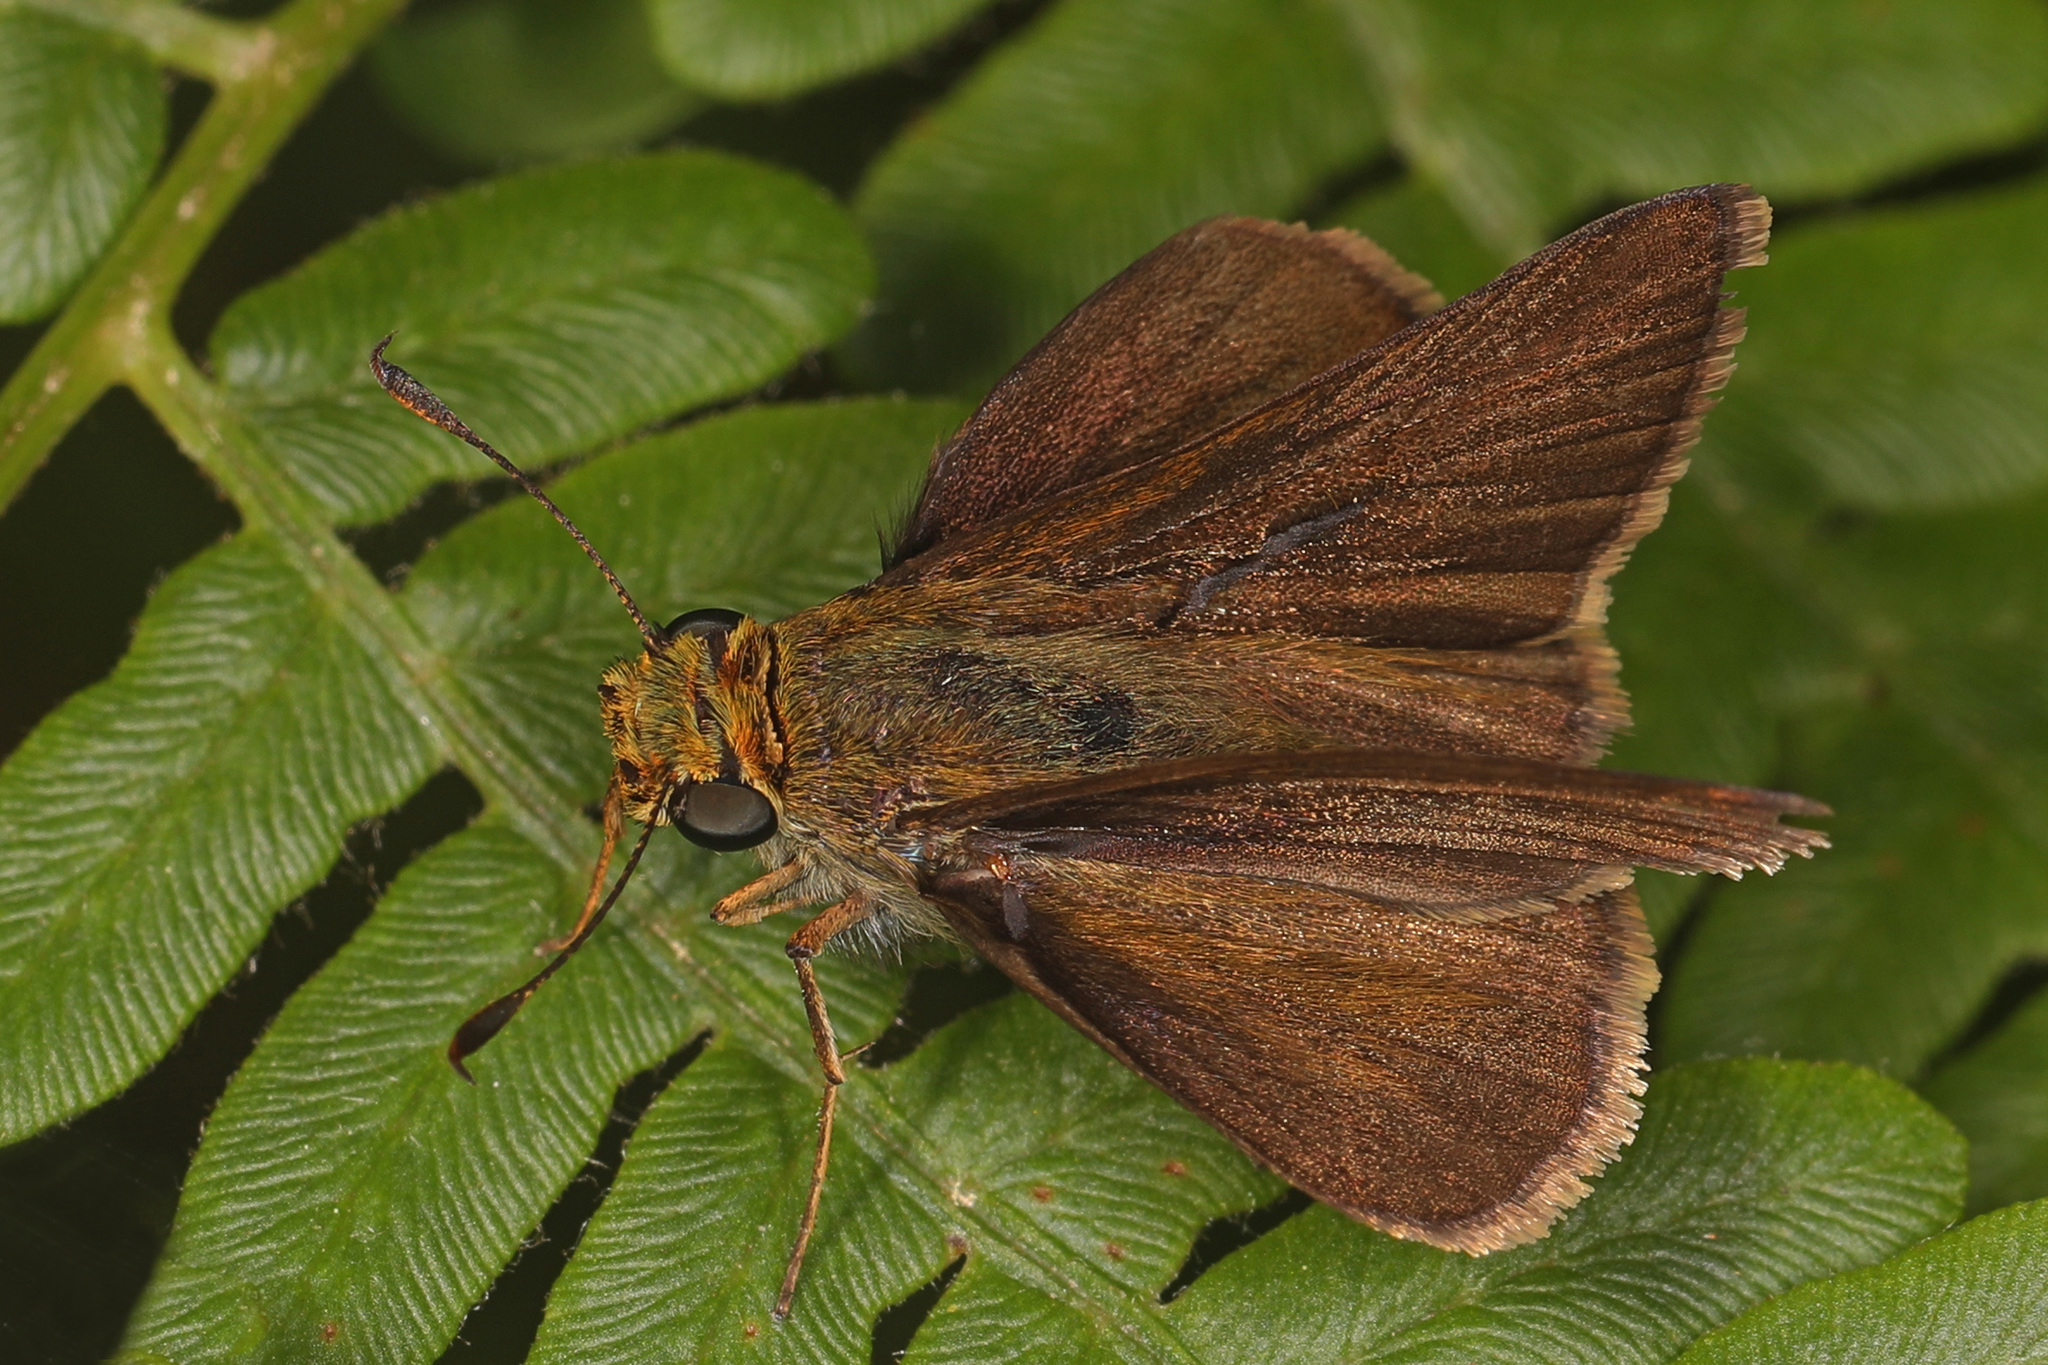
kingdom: Animalia
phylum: Arthropoda
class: Insecta
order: Lepidoptera
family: Hesperiidae
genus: Euphyes
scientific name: Euphyes vestris
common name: Dun skipper
